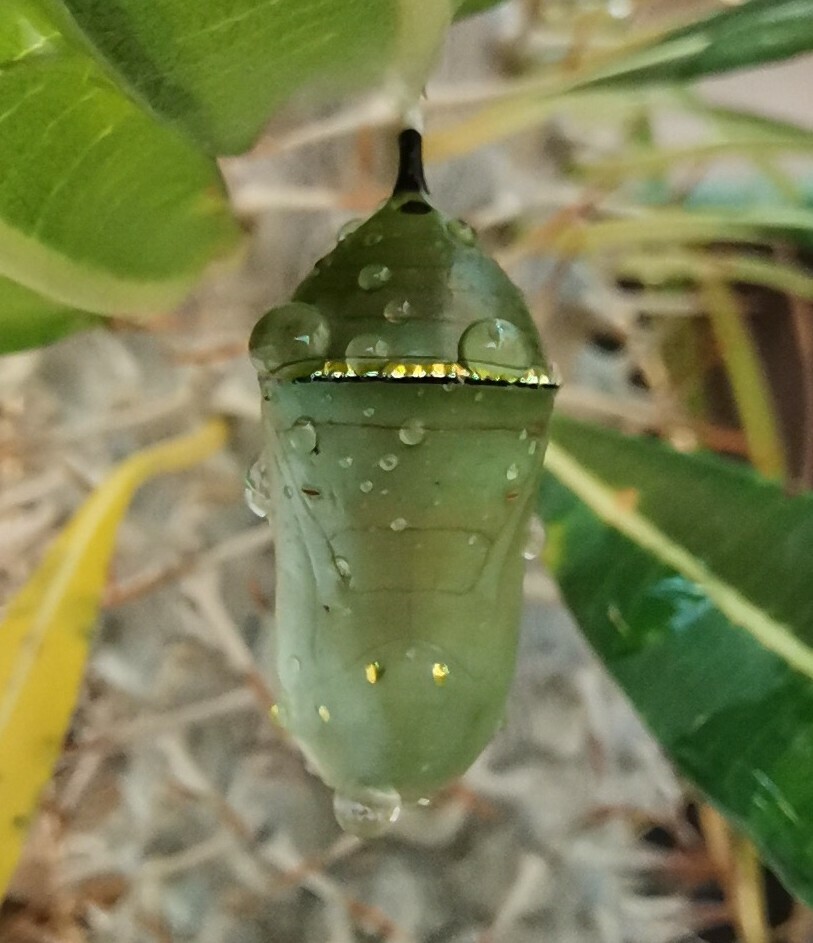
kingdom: Animalia
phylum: Arthropoda
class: Insecta
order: Lepidoptera
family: Nymphalidae
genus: Danaus
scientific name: Danaus plexippus
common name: Monarch
